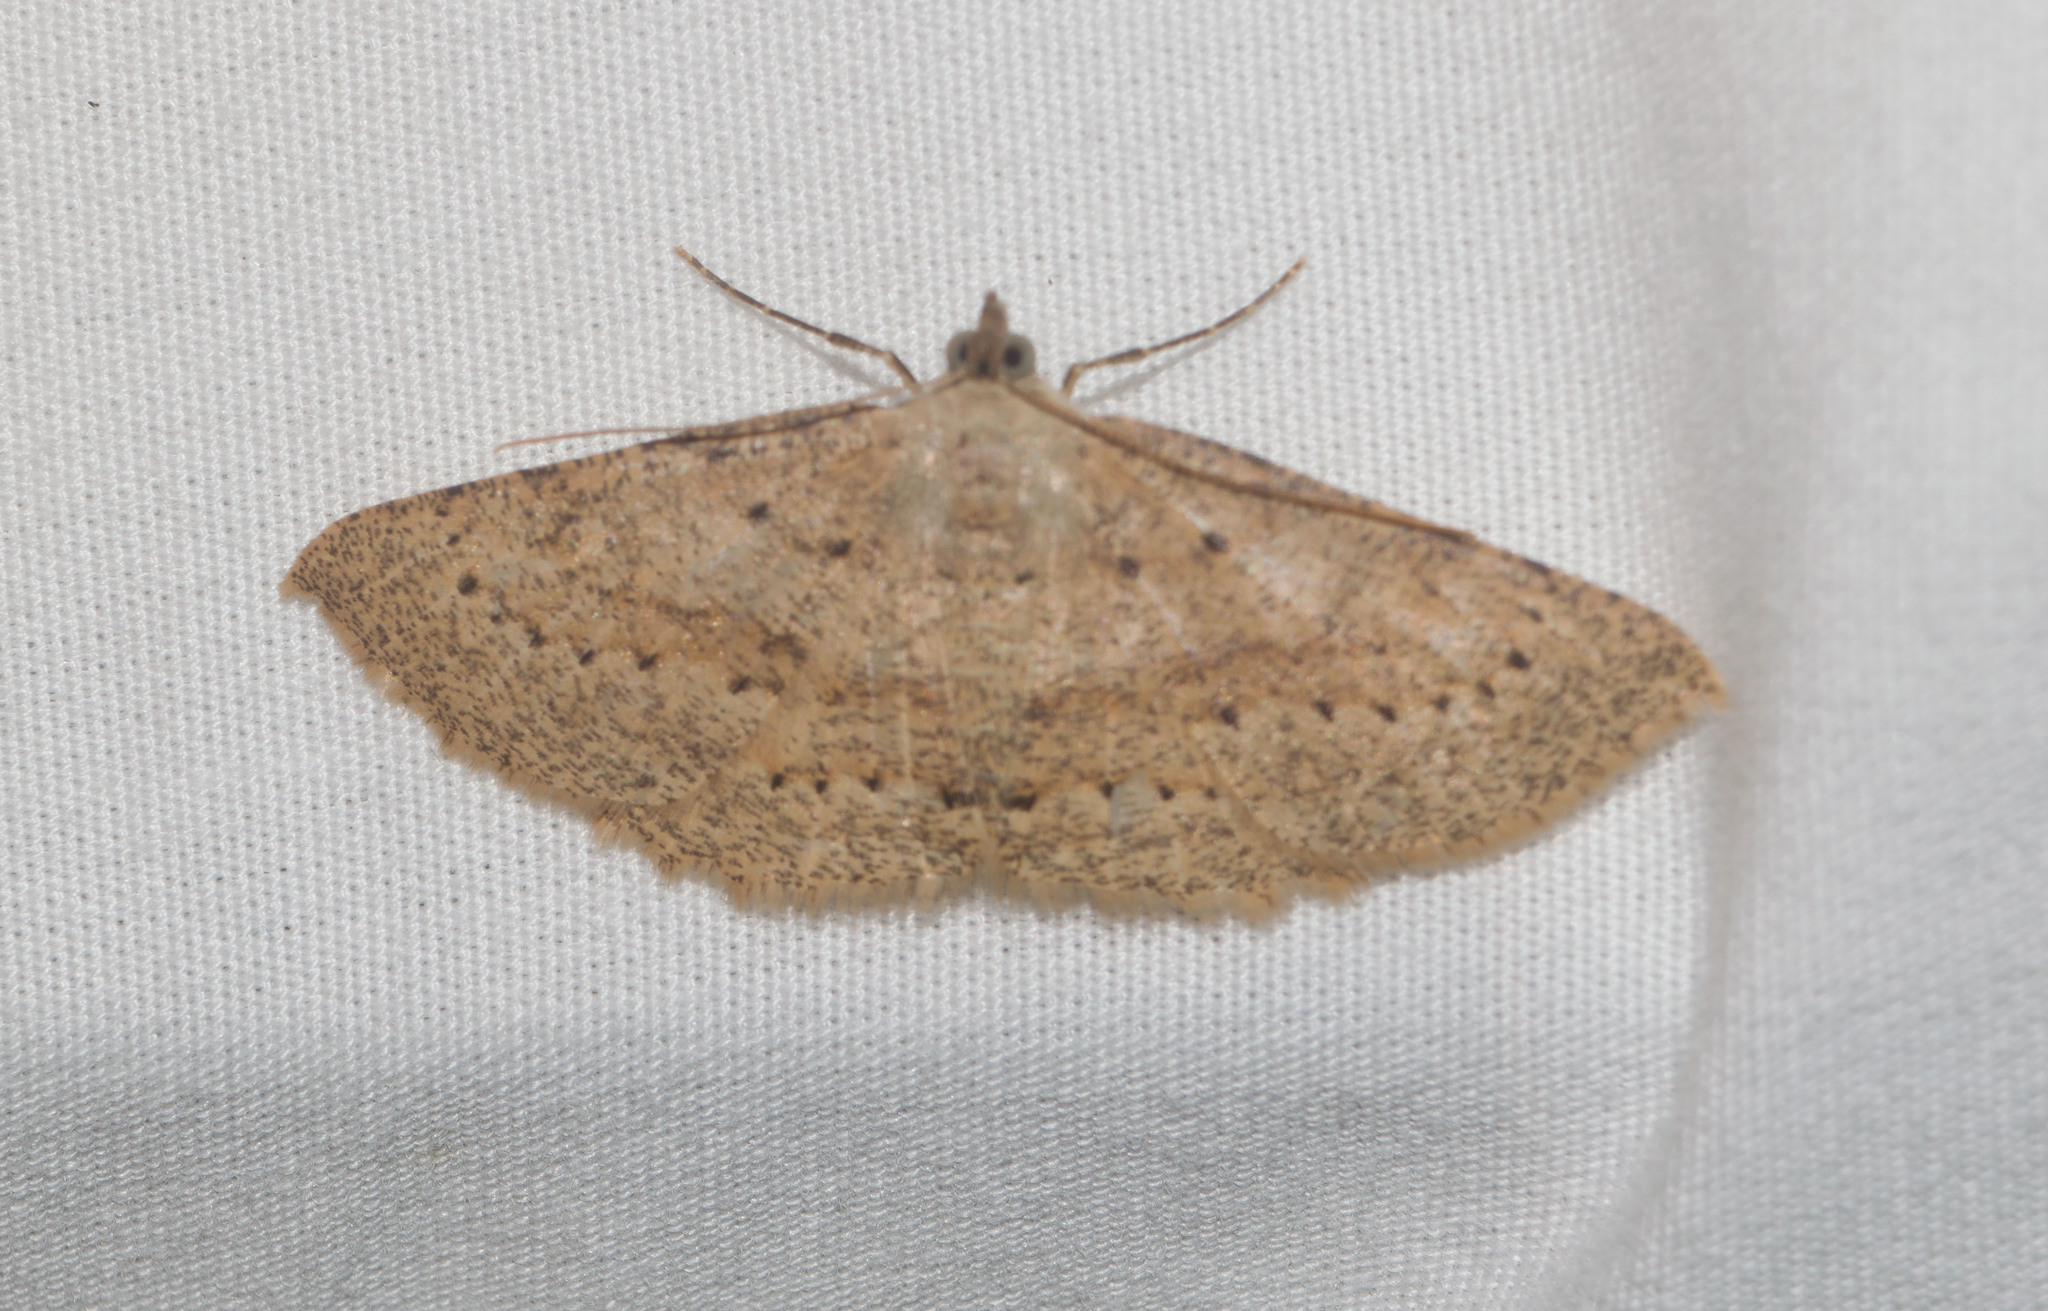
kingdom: Animalia
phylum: Arthropoda
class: Insecta
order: Lepidoptera
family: Geometridae
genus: Scotorythra
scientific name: Scotorythra corticea
